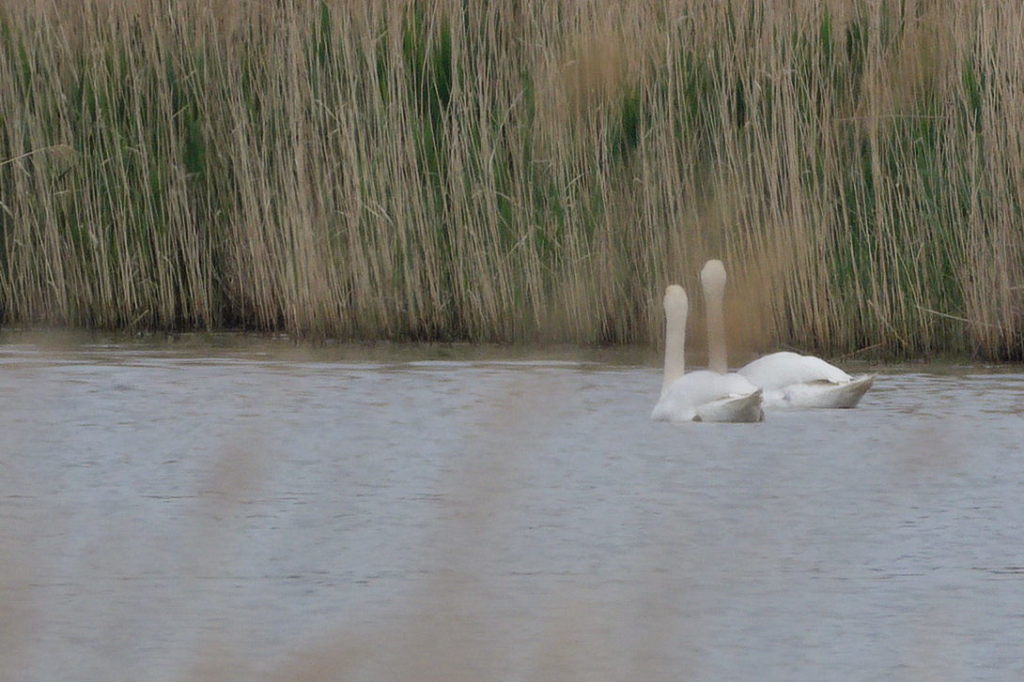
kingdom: Animalia
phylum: Chordata
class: Aves
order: Anseriformes
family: Anatidae
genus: Cygnus
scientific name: Cygnus olor
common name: Mute swan
